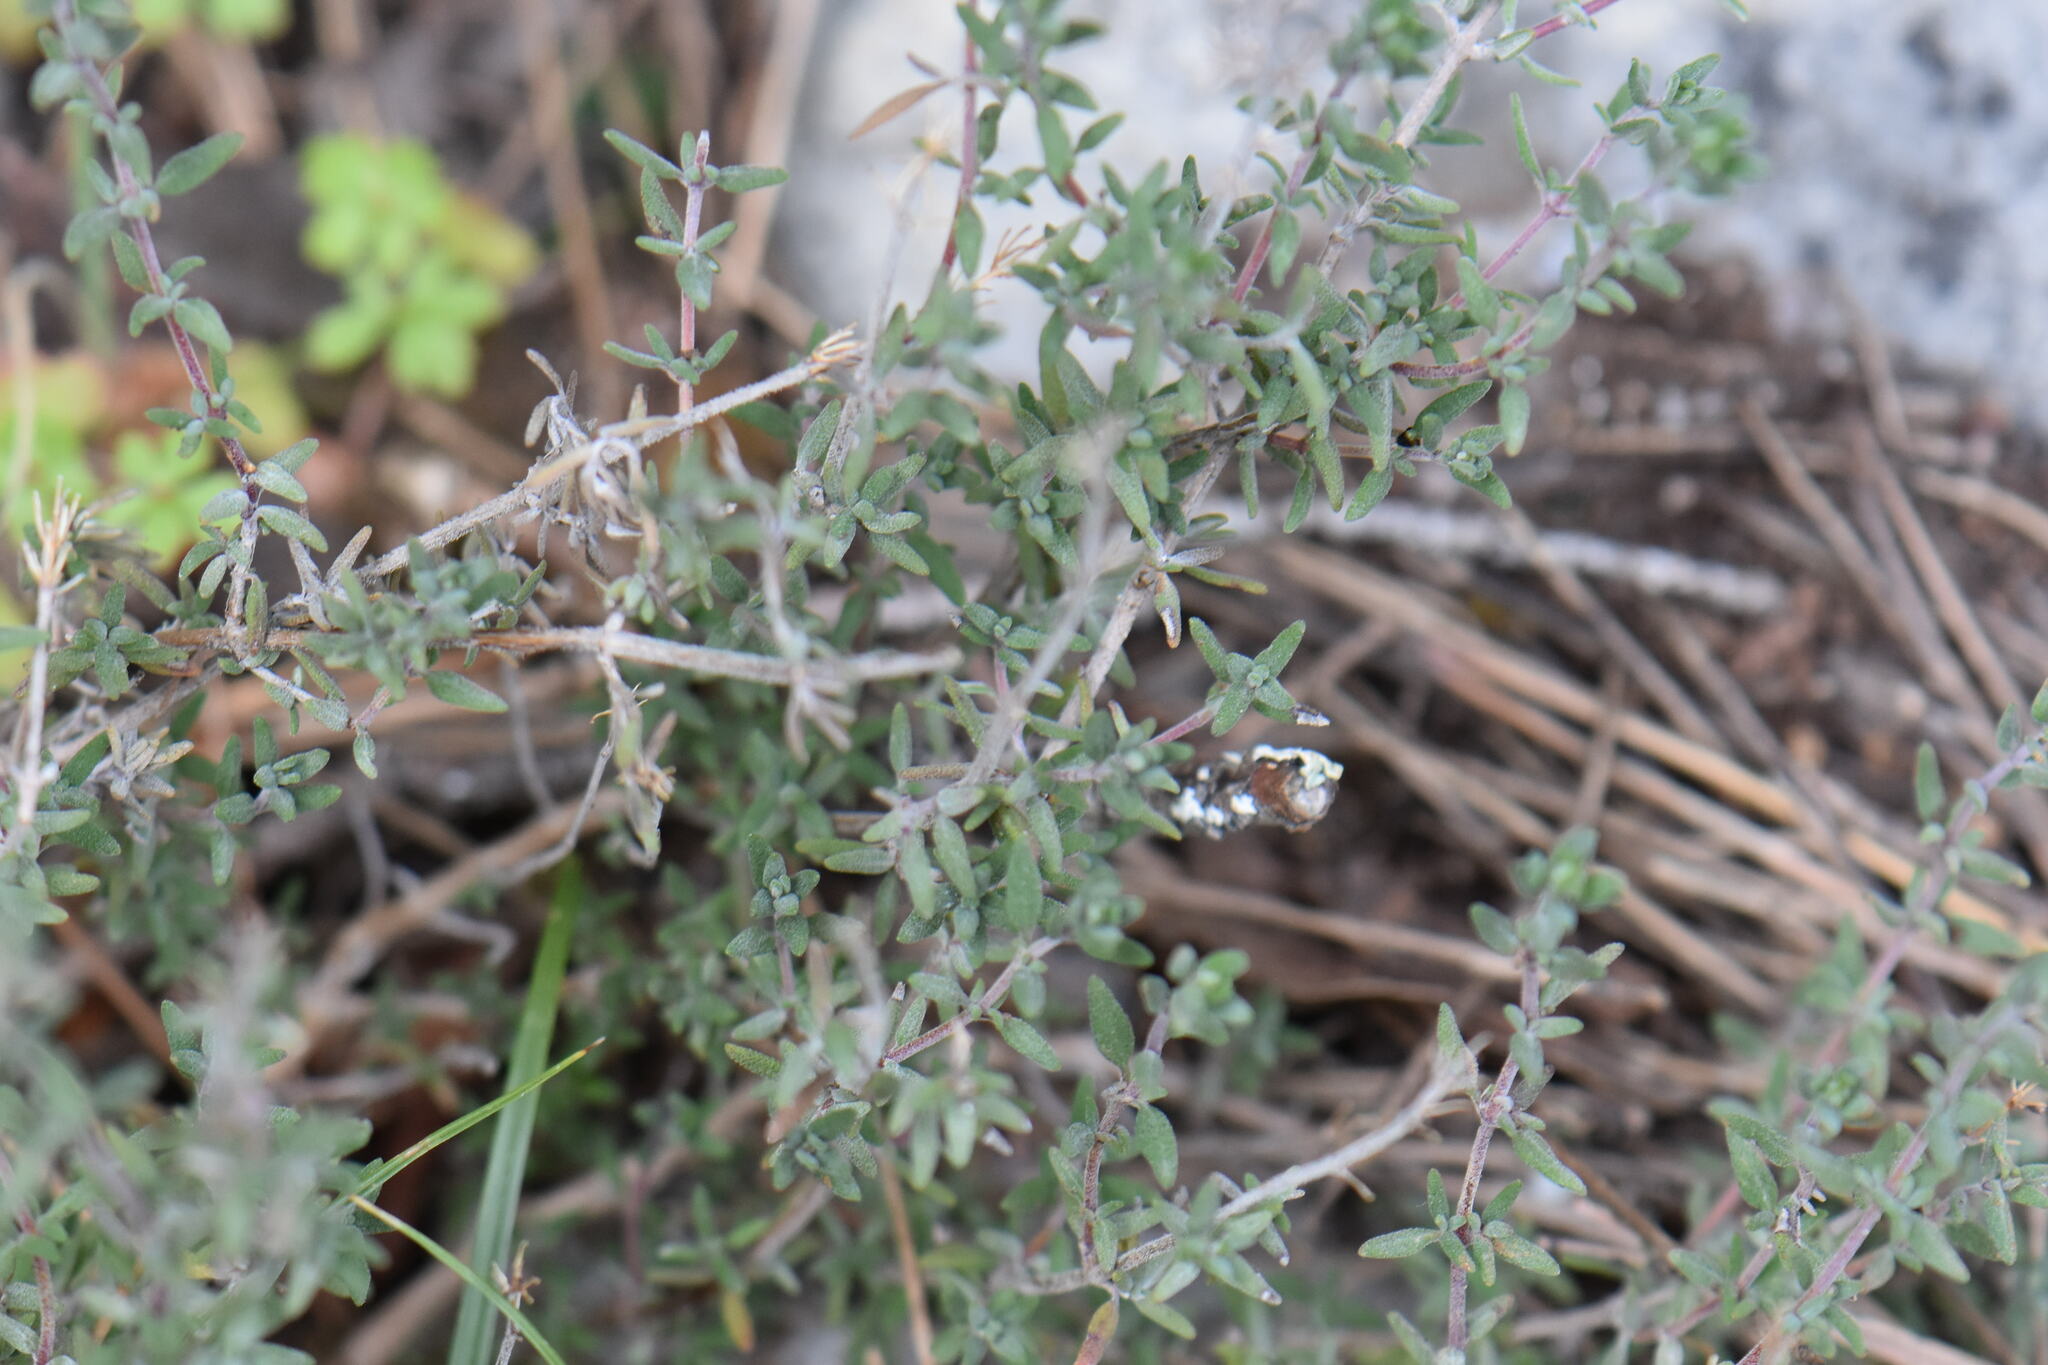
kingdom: Plantae
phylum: Tracheophyta
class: Magnoliopsida
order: Lamiales
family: Lamiaceae
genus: Thymus
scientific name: Thymus vulgaris
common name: Garden thyme
